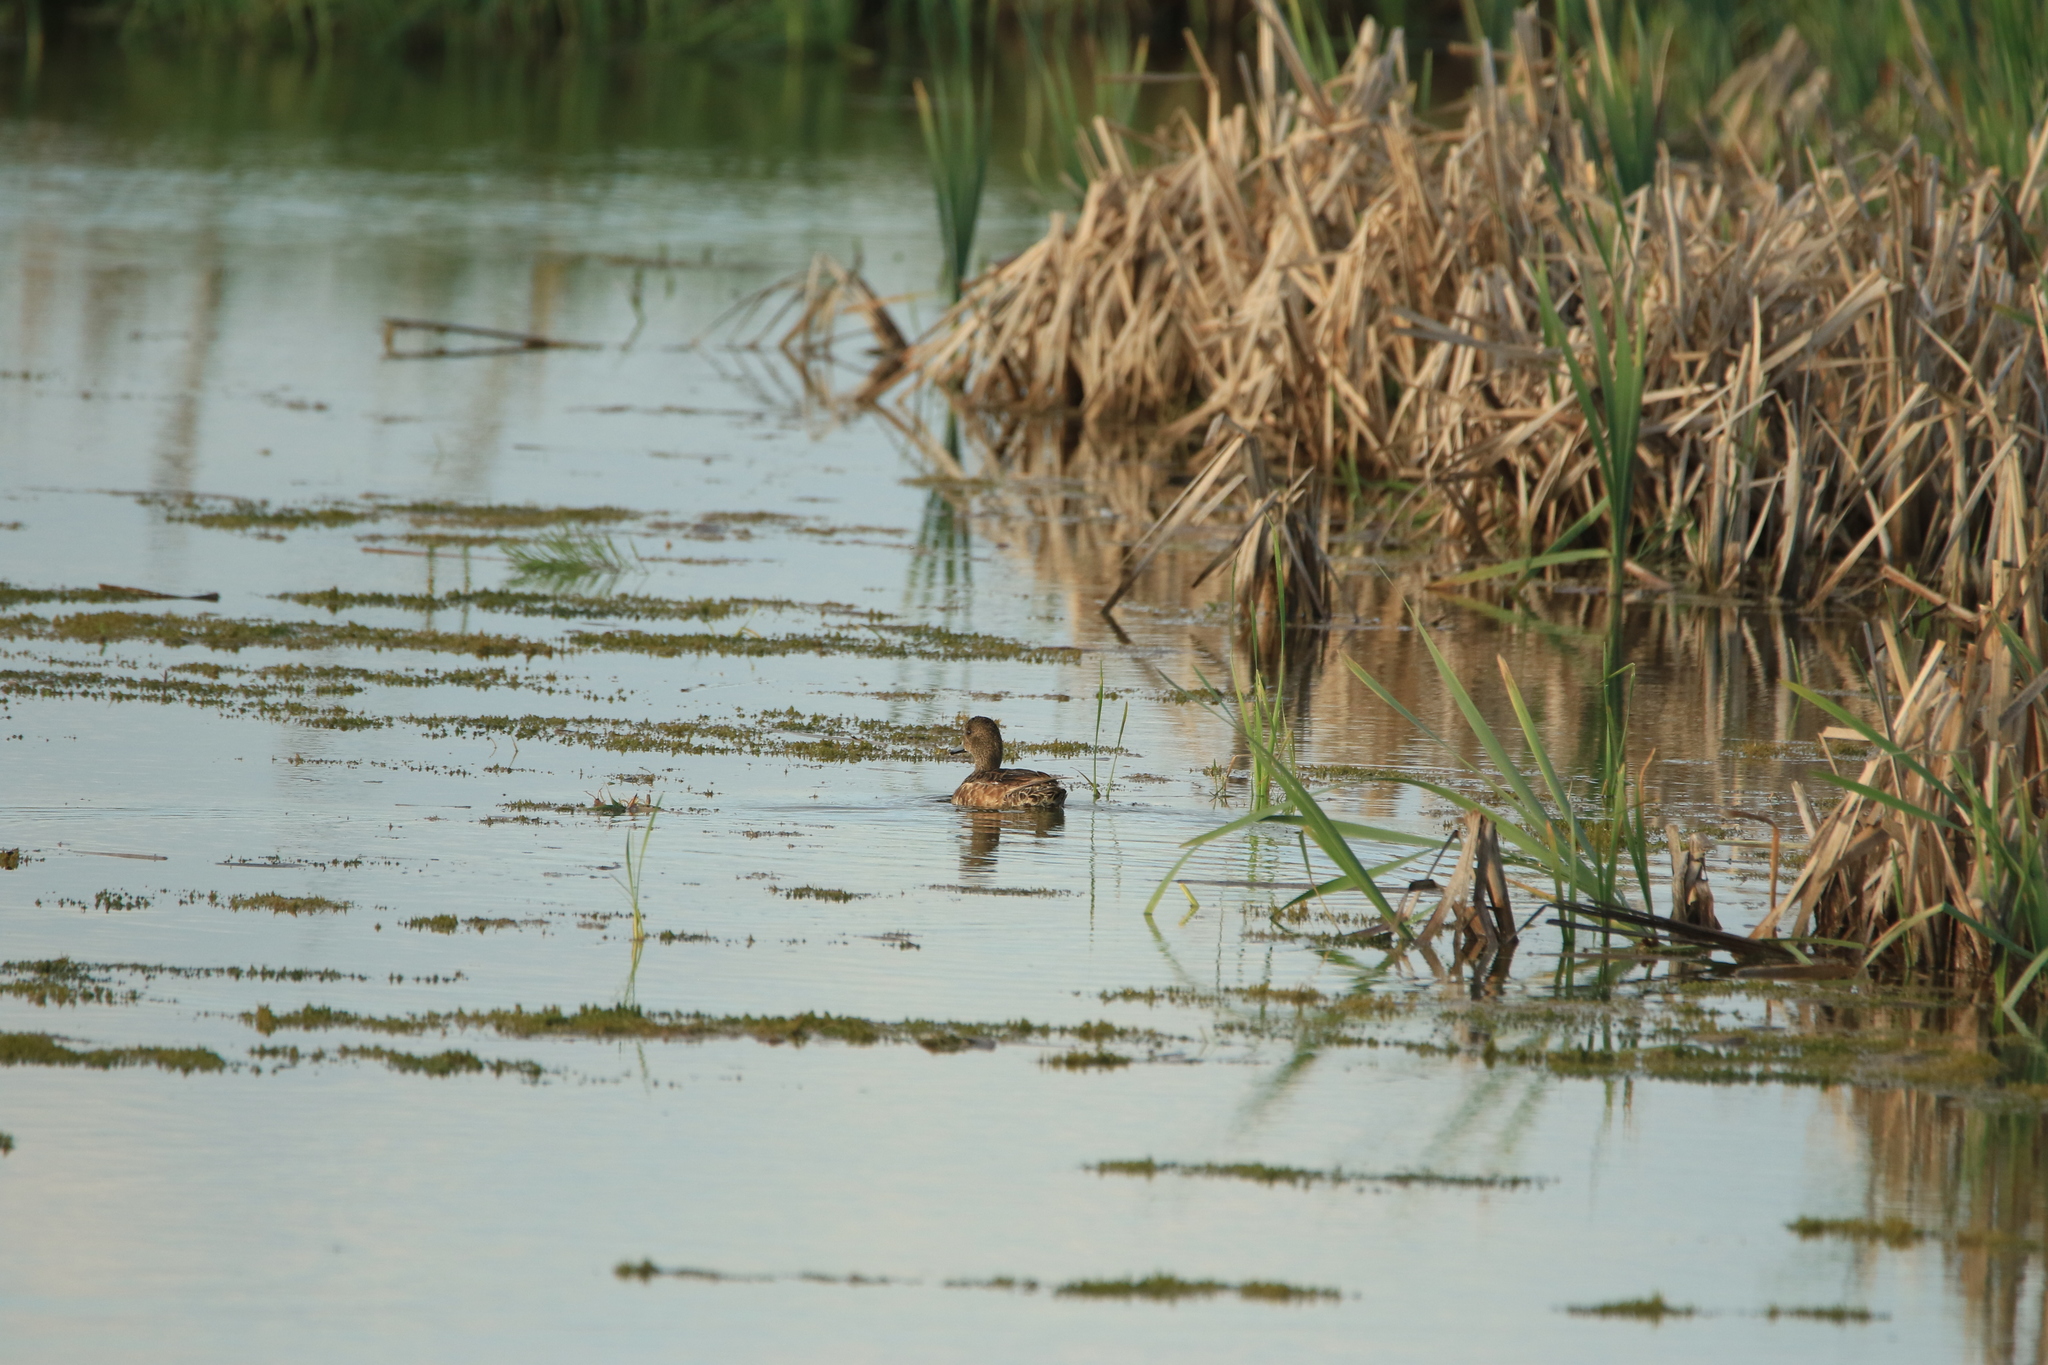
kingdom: Animalia
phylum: Chordata
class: Aves
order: Anseriformes
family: Anatidae
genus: Mareca
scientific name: Mareca penelope
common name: Eurasian wigeon
